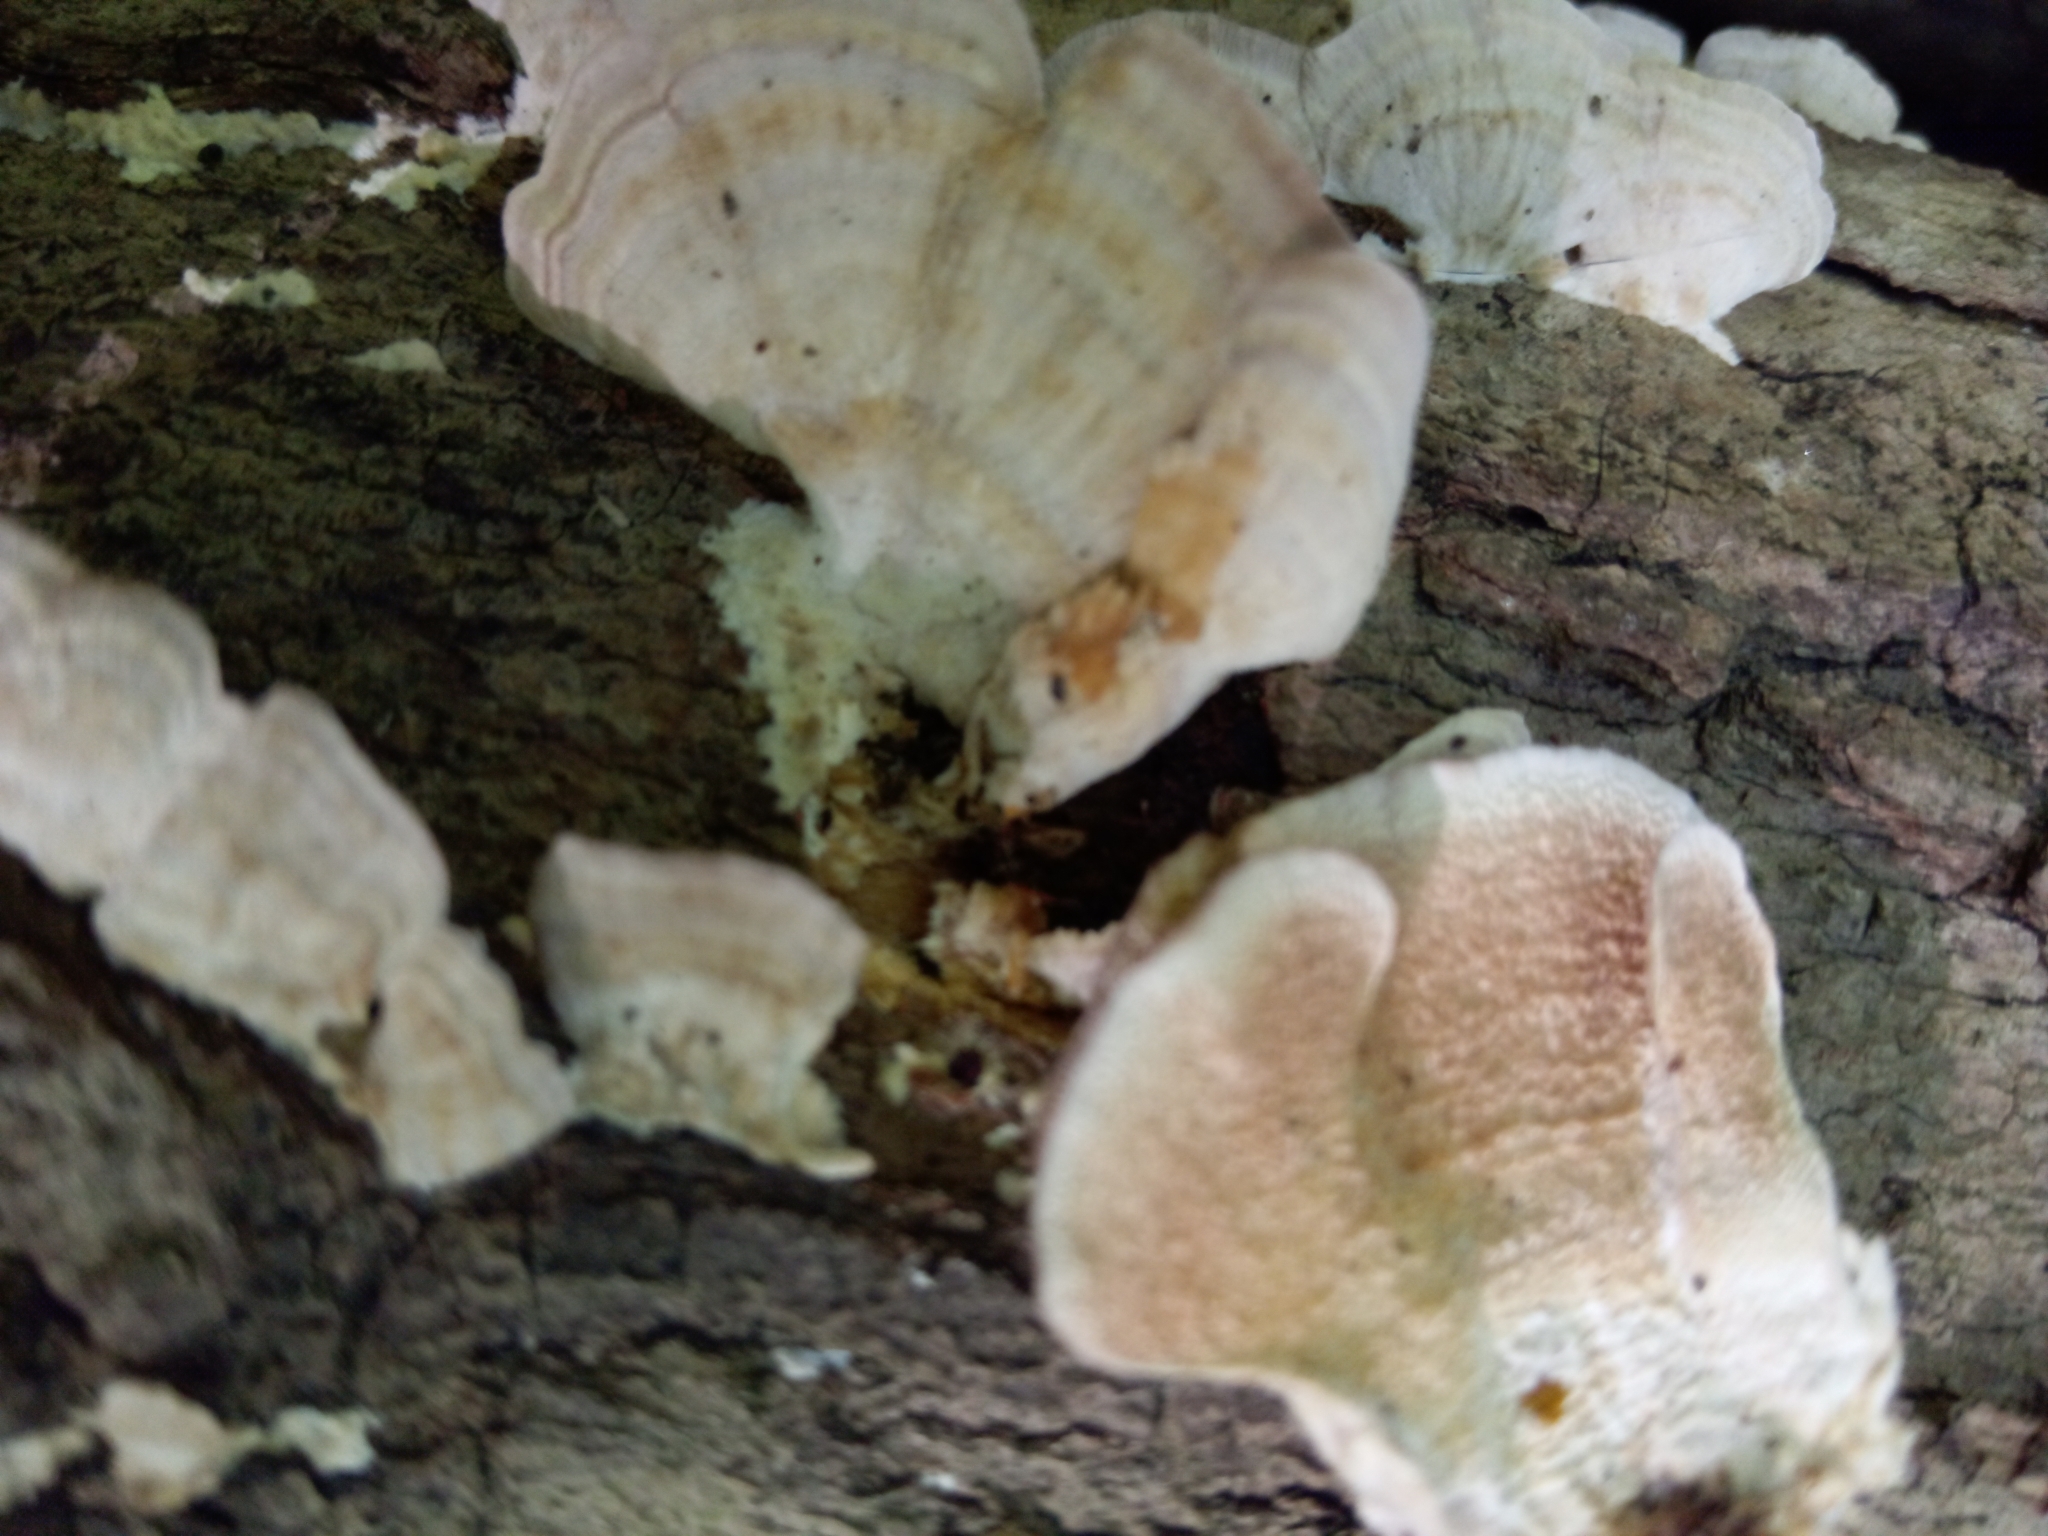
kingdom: Fungi
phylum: Basidiomycota
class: Agaricomycetes
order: Hymenochaetales
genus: Trichaptum
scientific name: Trichaptum biforme
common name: Violet-toothed polypore
